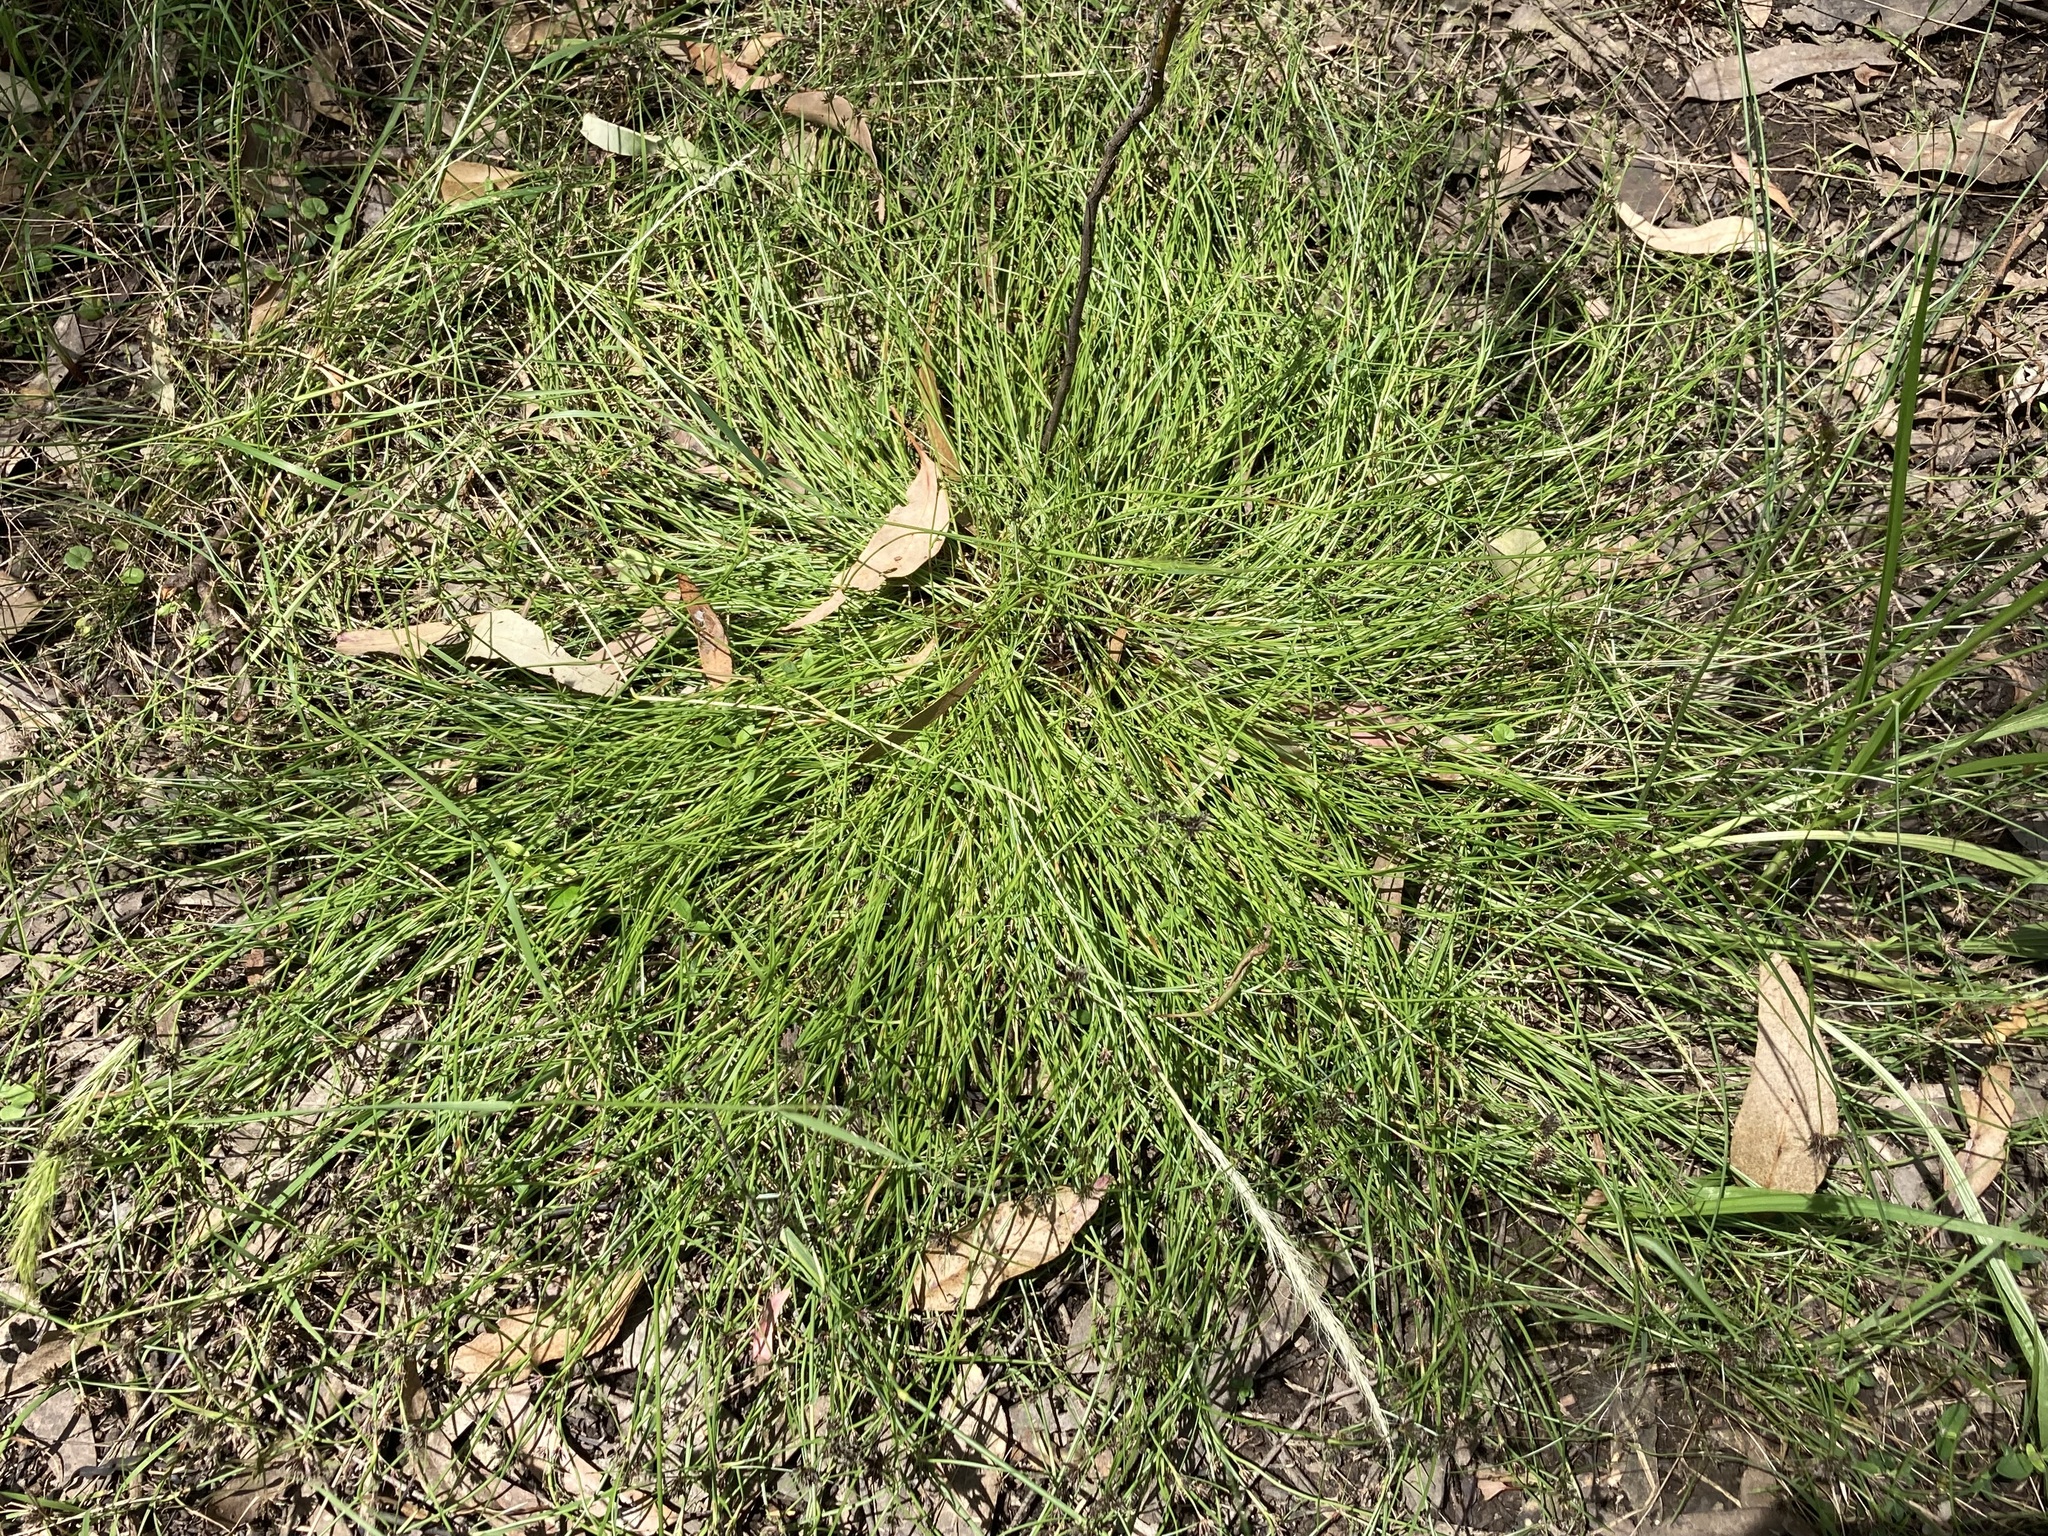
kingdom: Plantae
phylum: Tracheophyta
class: Liliopsida
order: Poales
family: Cyperaceae
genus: Schoenus
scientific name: Schoenus apogon
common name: Smooth bogrush
